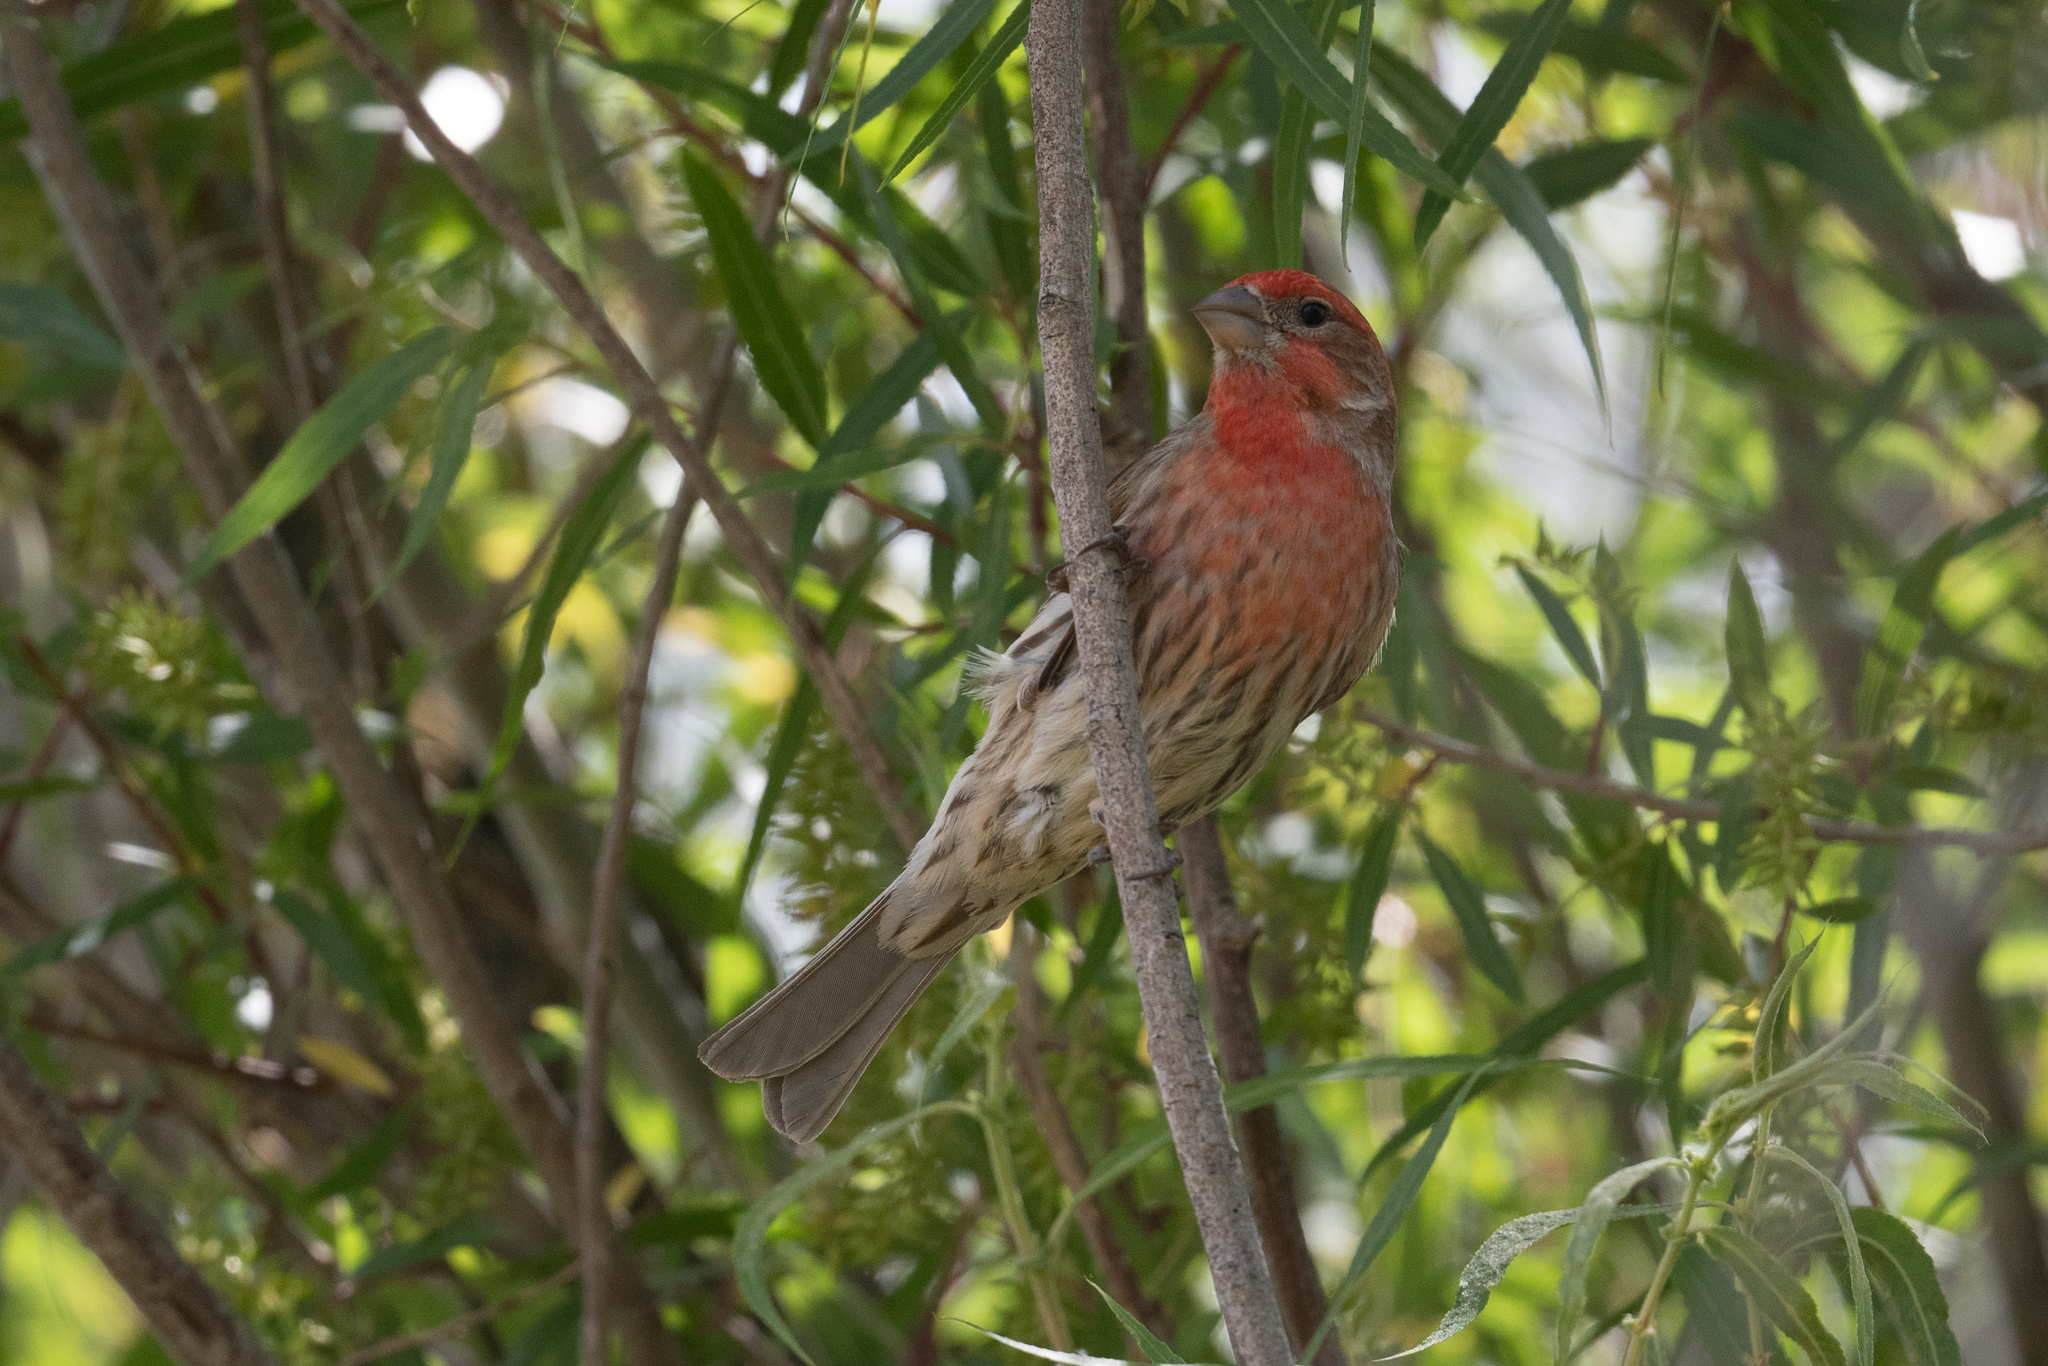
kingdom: Animalia
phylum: Chordata
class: Aves
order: Passeriformes
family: Fringillidae
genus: Haemorhous
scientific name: Haemorhous mexicanus
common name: House finch
